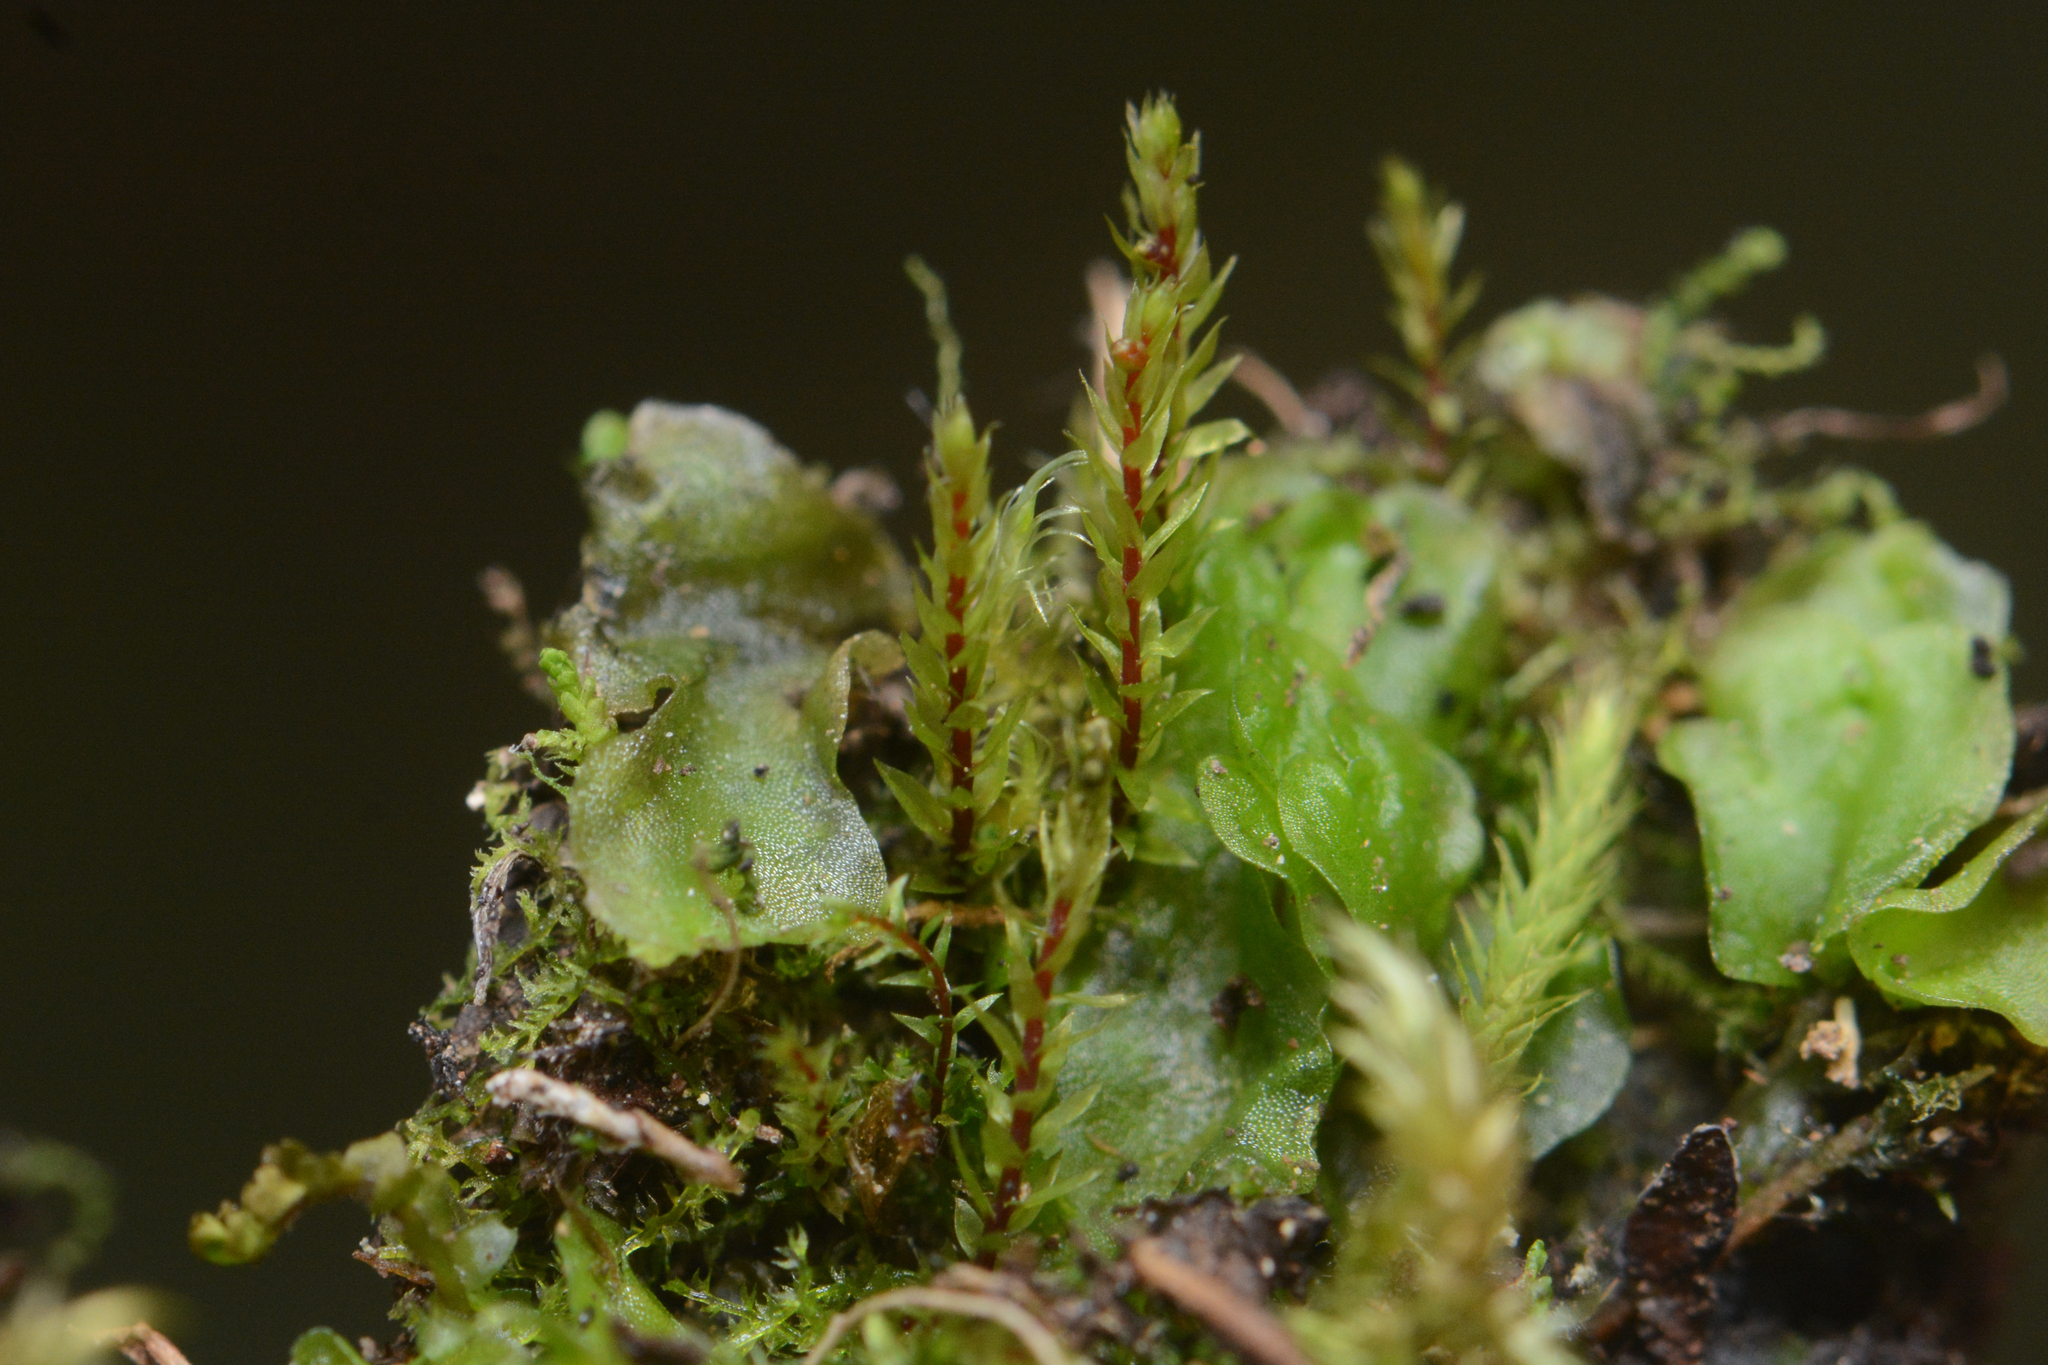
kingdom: Plantae
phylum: Bryophyta
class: Bryopsida
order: Bryales
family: Mniaceae
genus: Pohlia
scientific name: Pohlia drummondii
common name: Drummond's nodding moss
